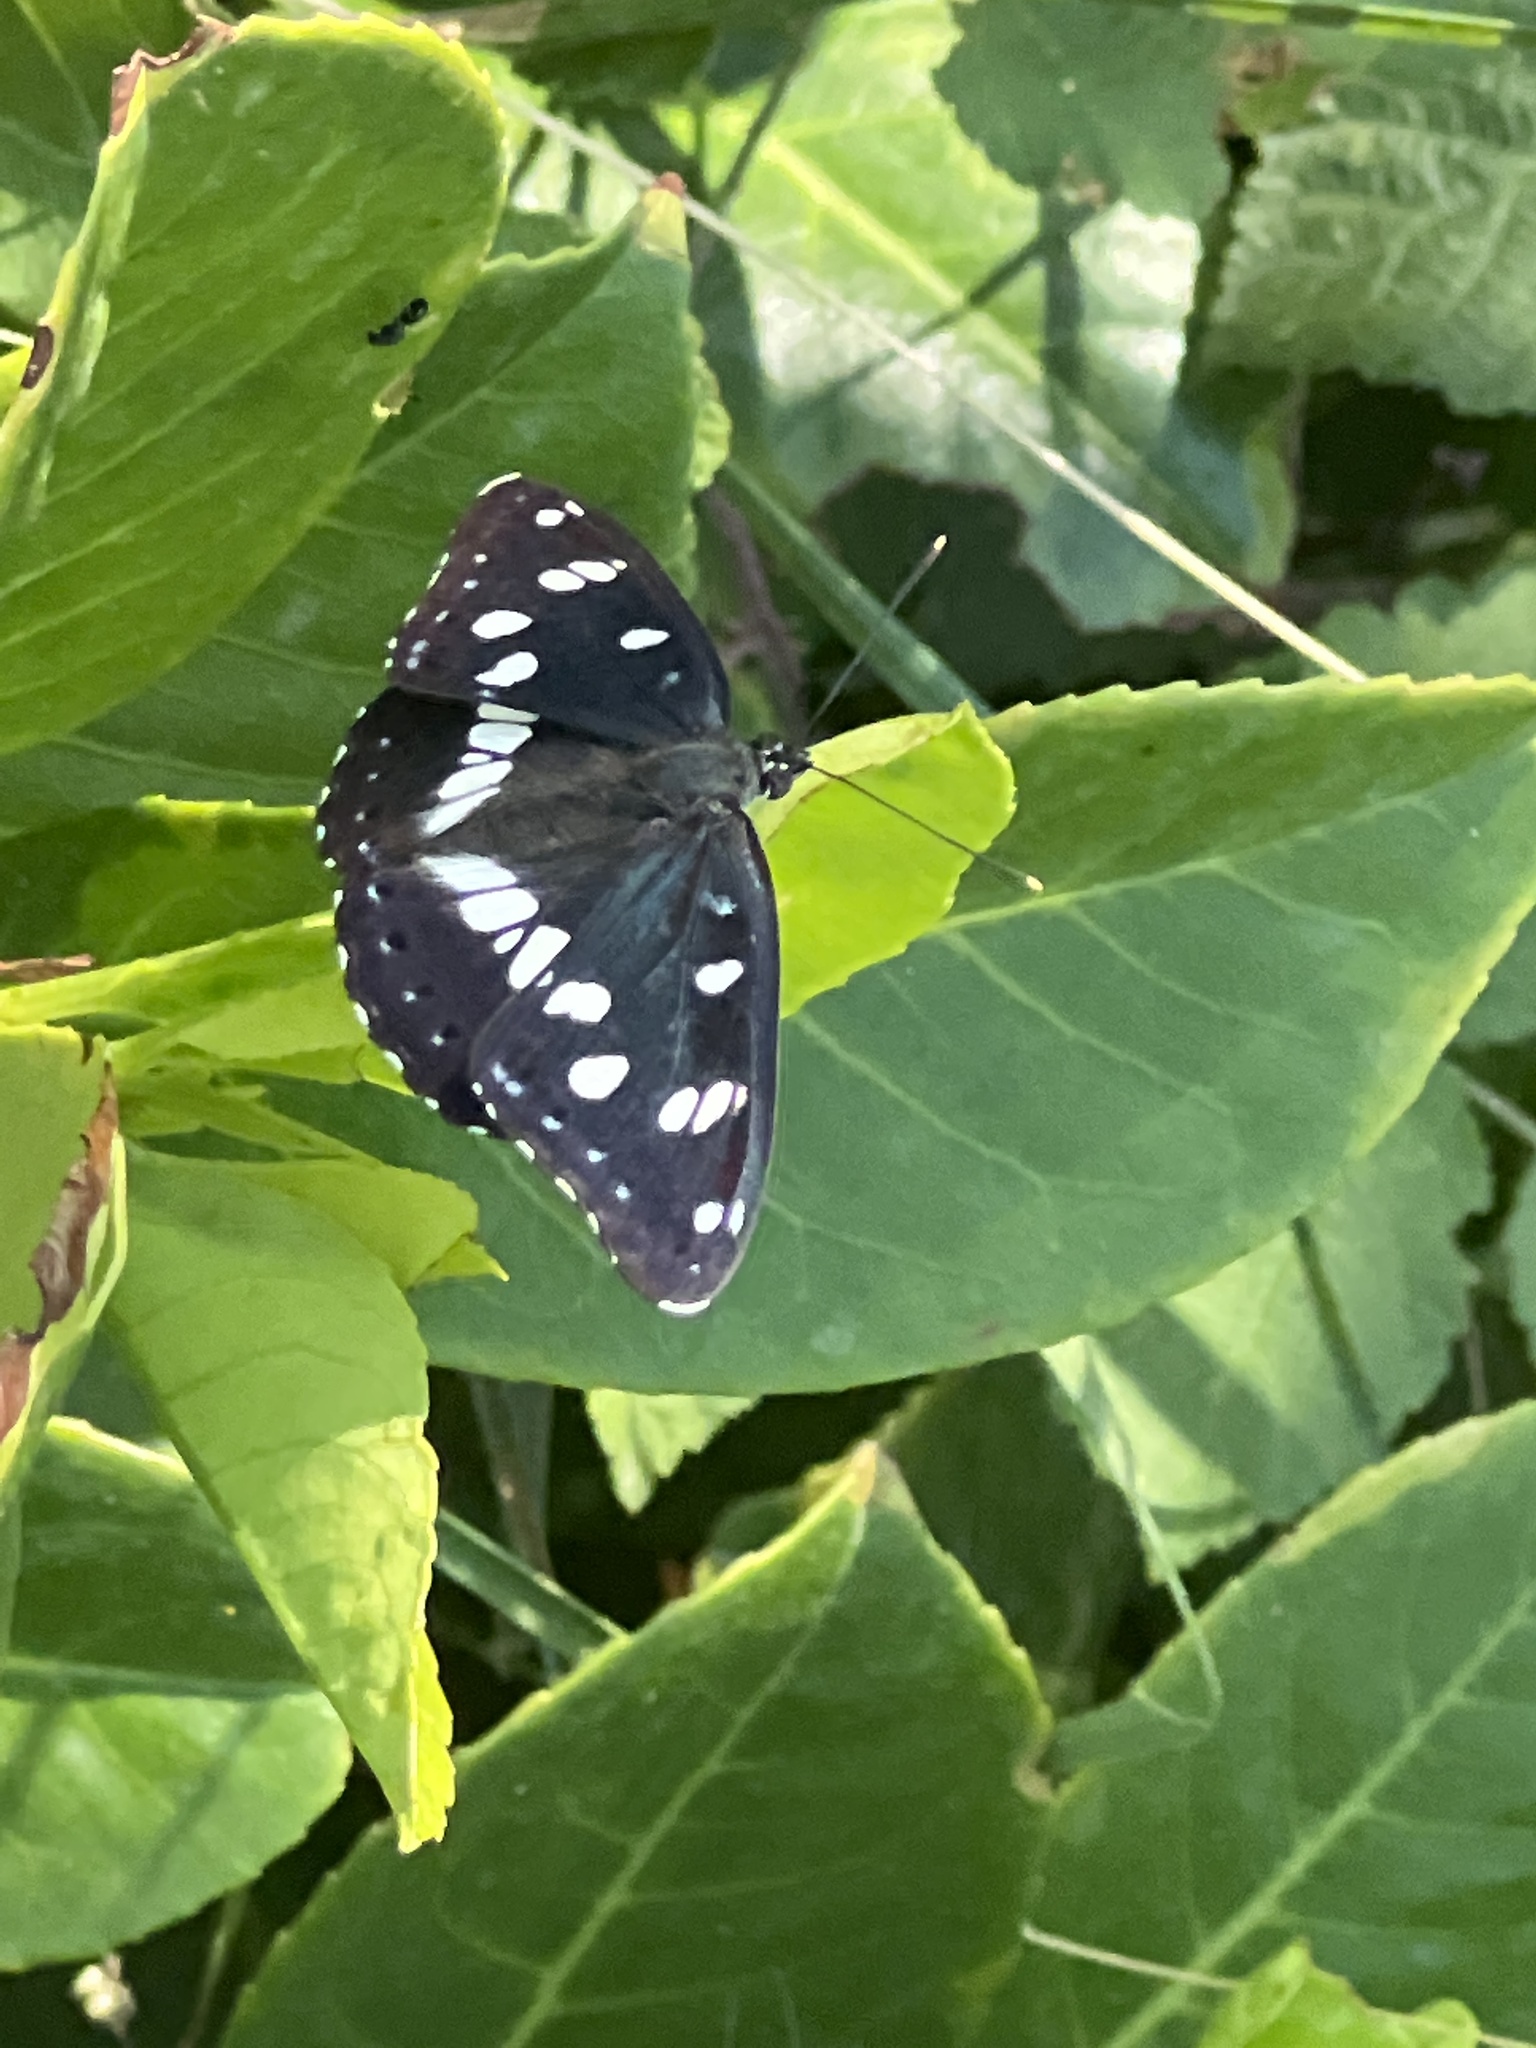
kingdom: Animalia
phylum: Arthropoda
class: Insecta
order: Lepidoptera
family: Nymphalidae
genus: Limenitis
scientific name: Limenitis reducta
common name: Southern white admiral
